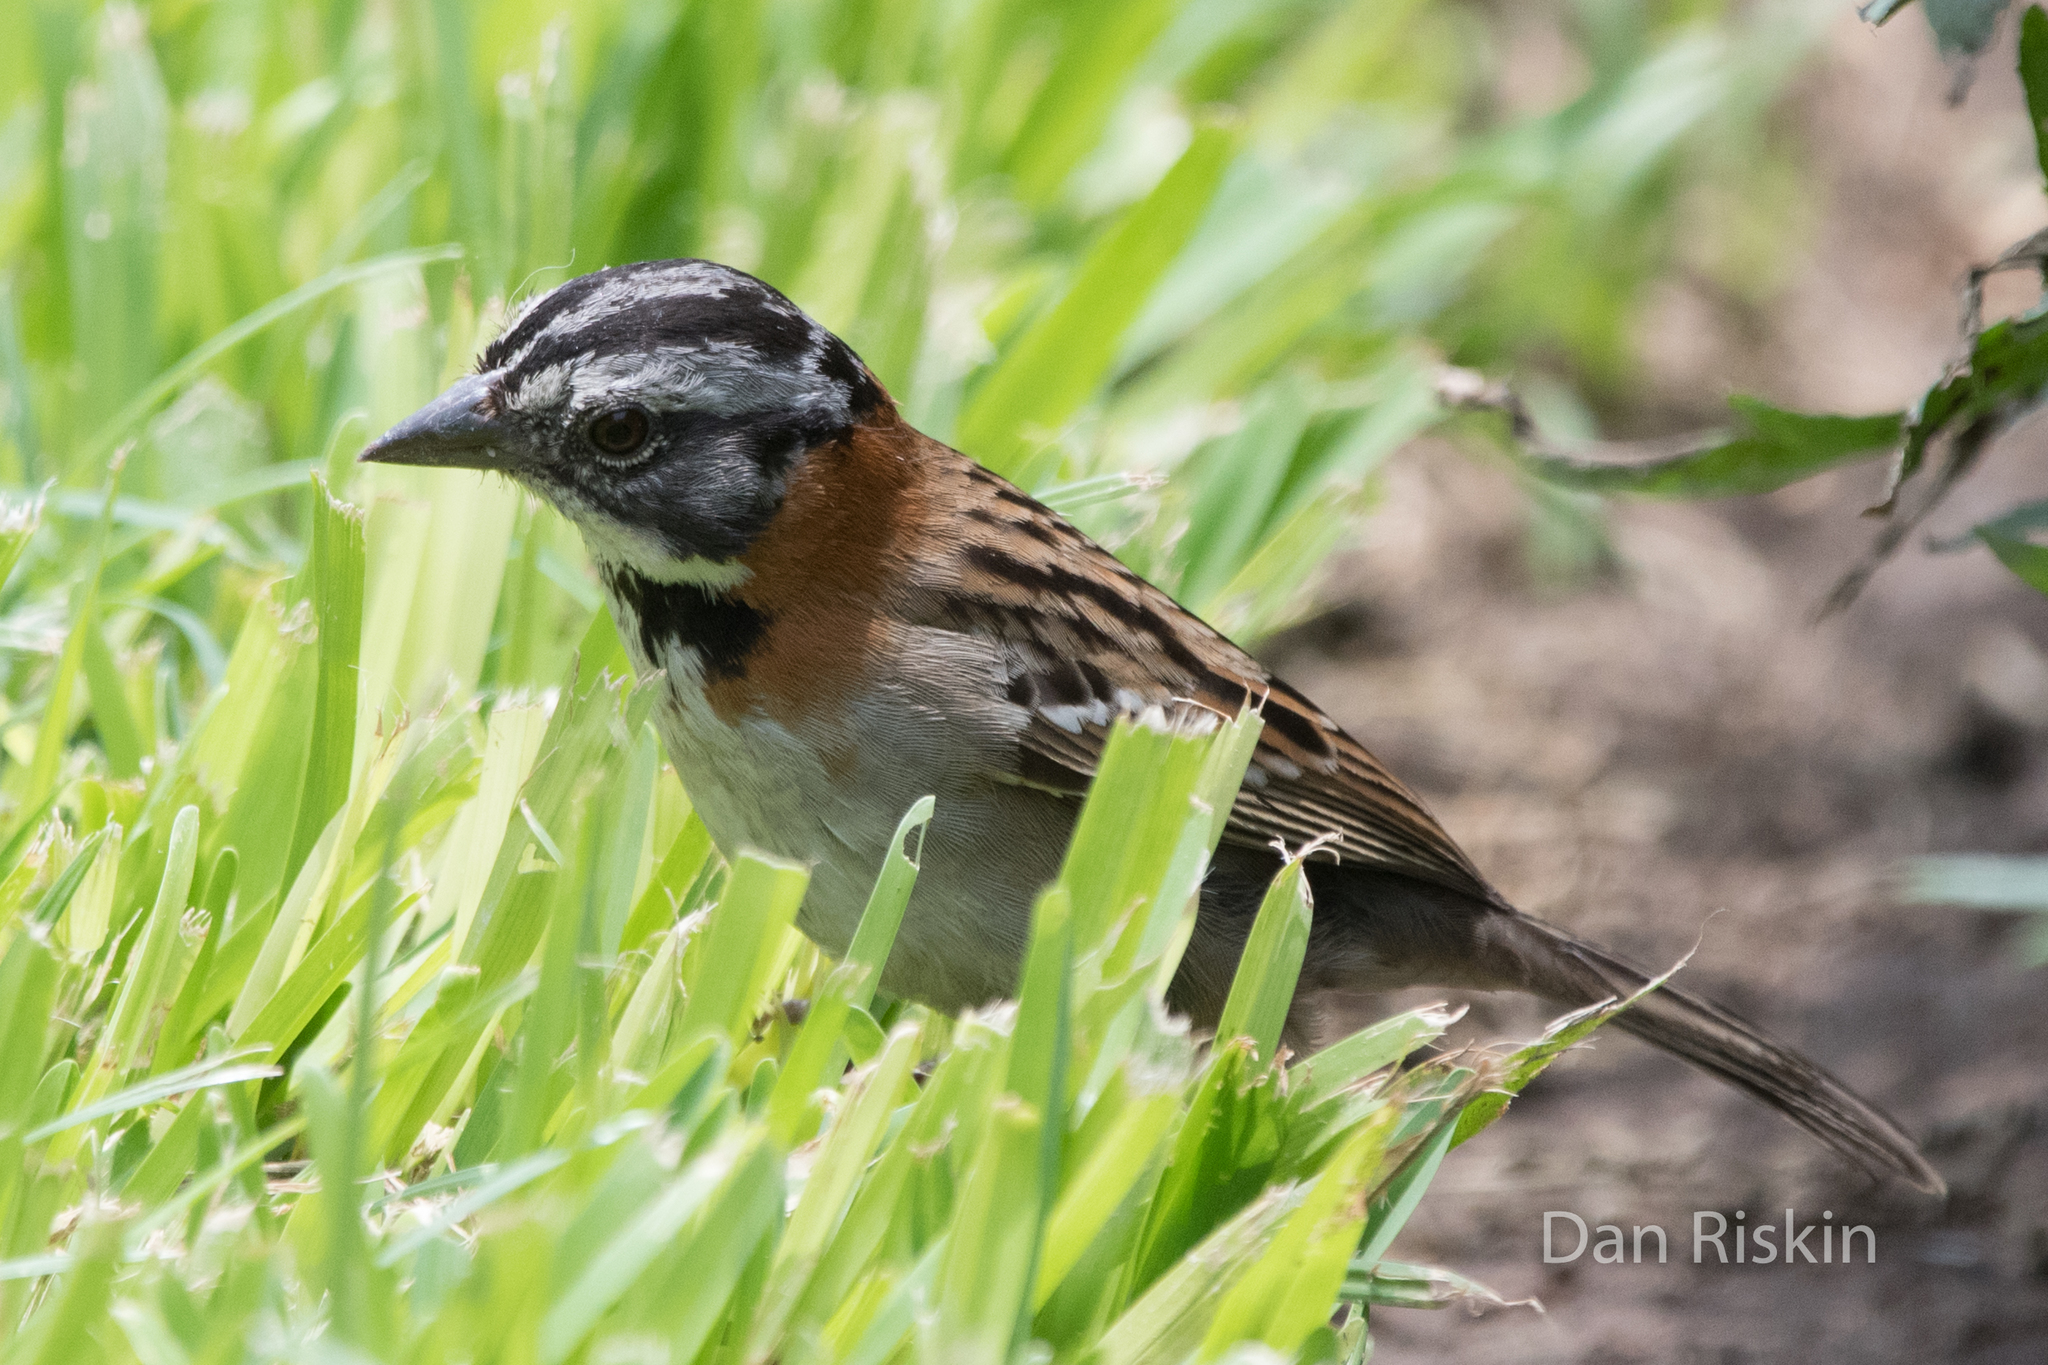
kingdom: Animalia
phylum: Chordata
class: Aves
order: Passeriformes
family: Passerellidae
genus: Zonotrichia
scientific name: Zonotrichia capensis
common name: Rufous-collared sparrow
